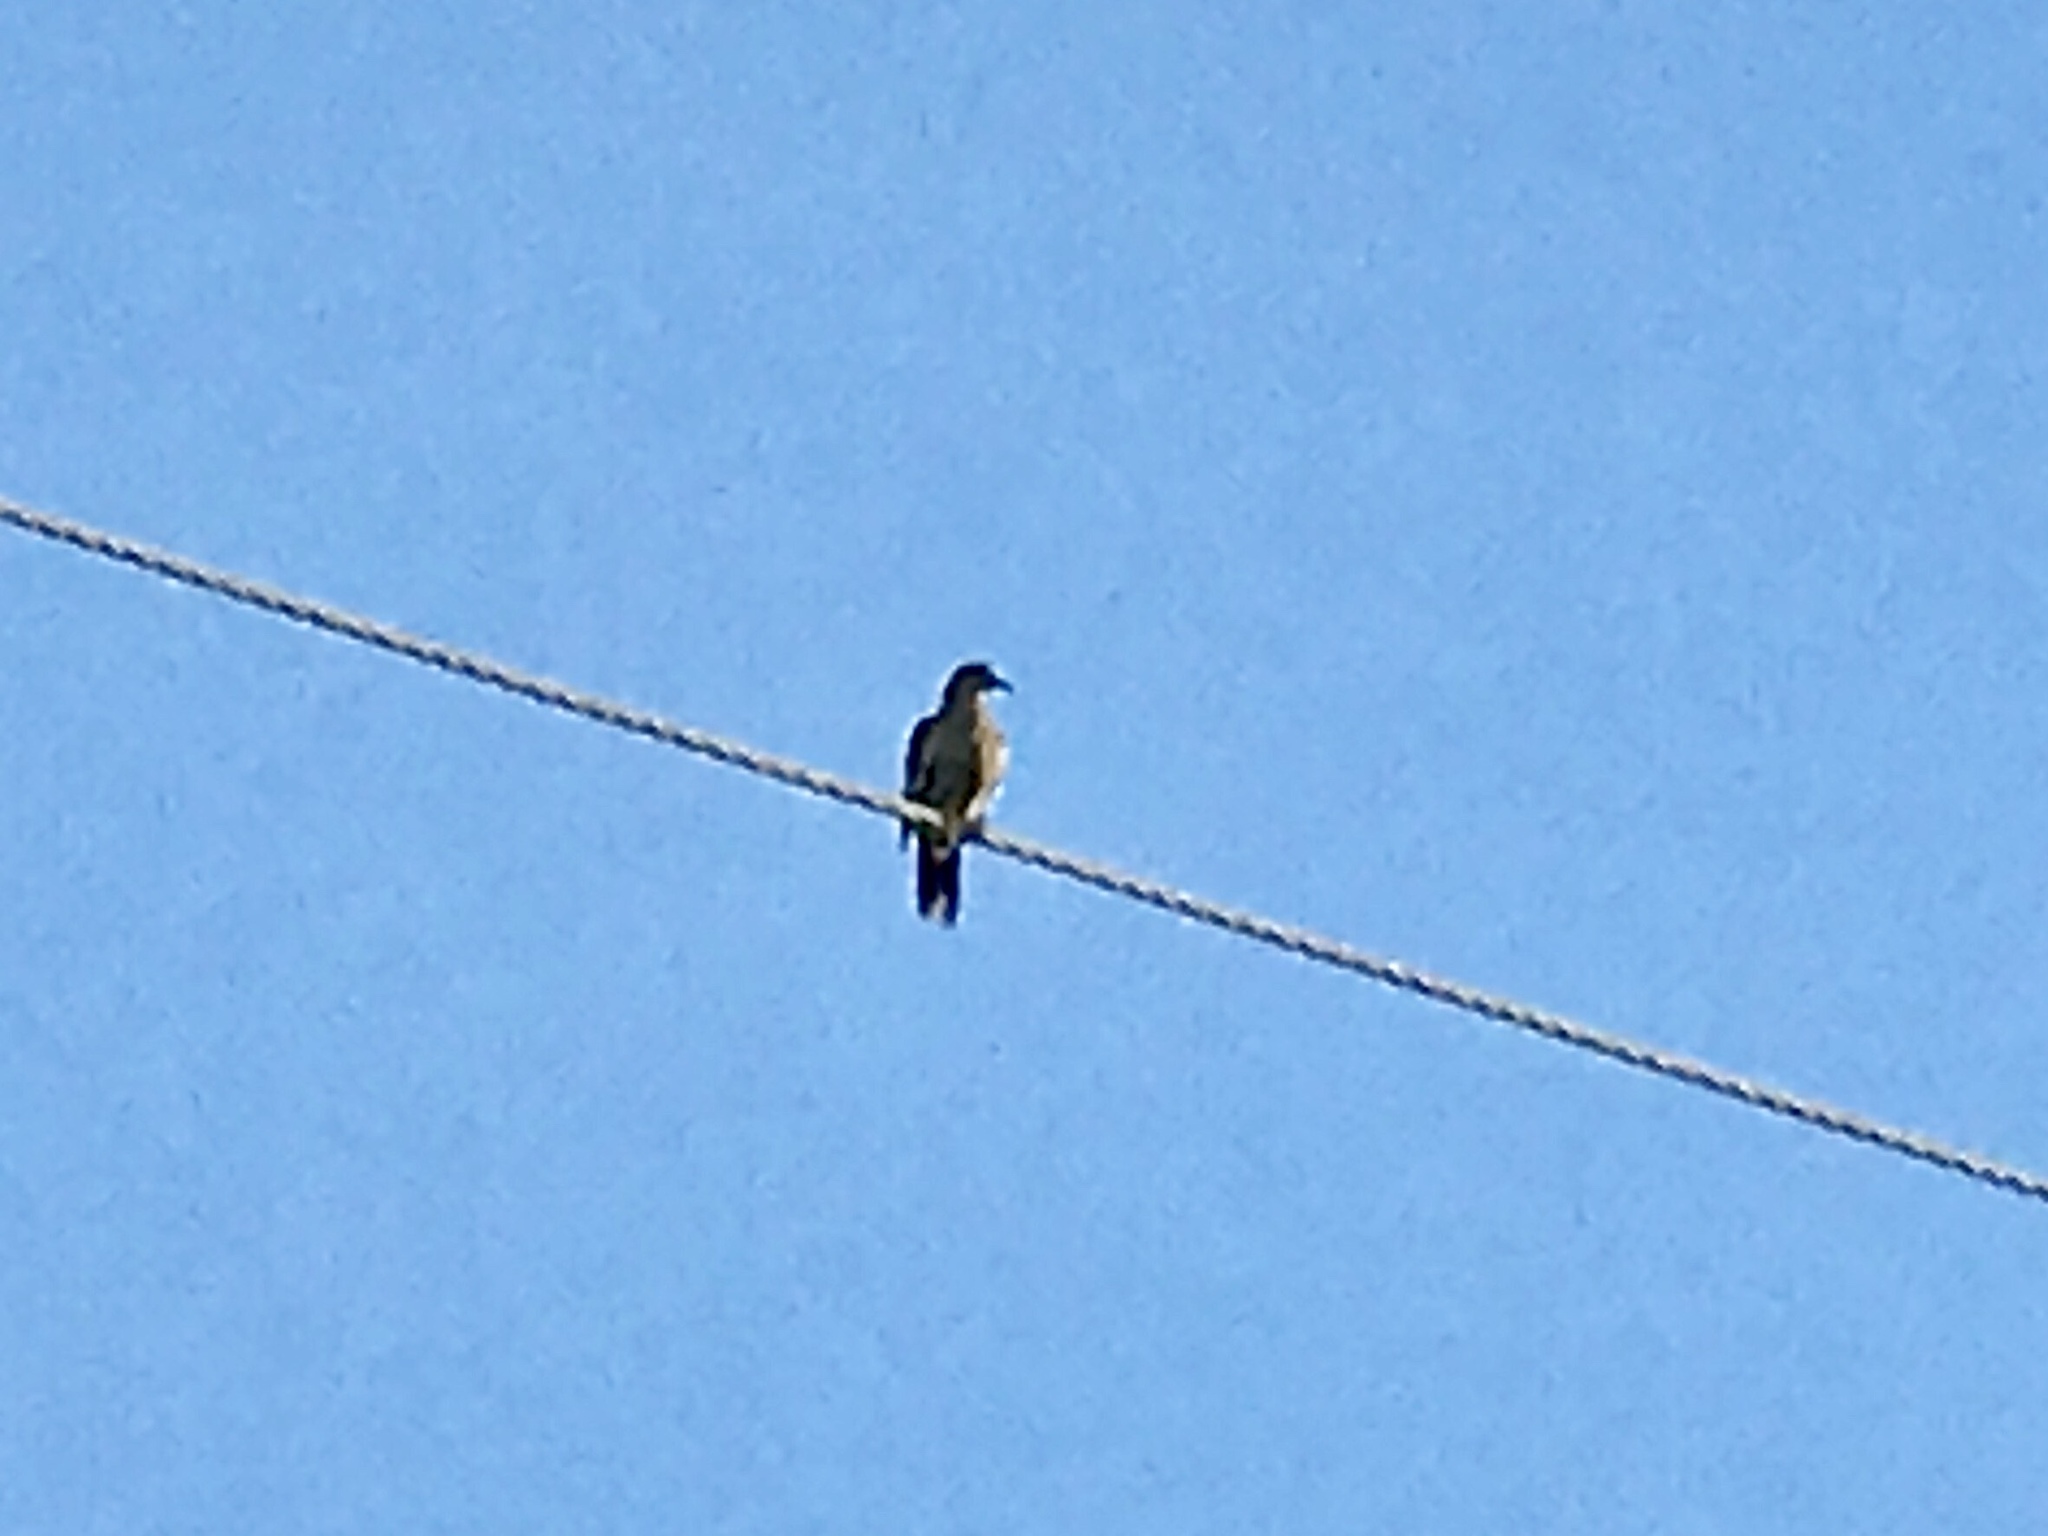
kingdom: Animalia
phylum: Chordata
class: Aves
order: Columbiformes
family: Columbidae
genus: Zenaida
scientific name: Zenaida asiatica
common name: White-winged dove
